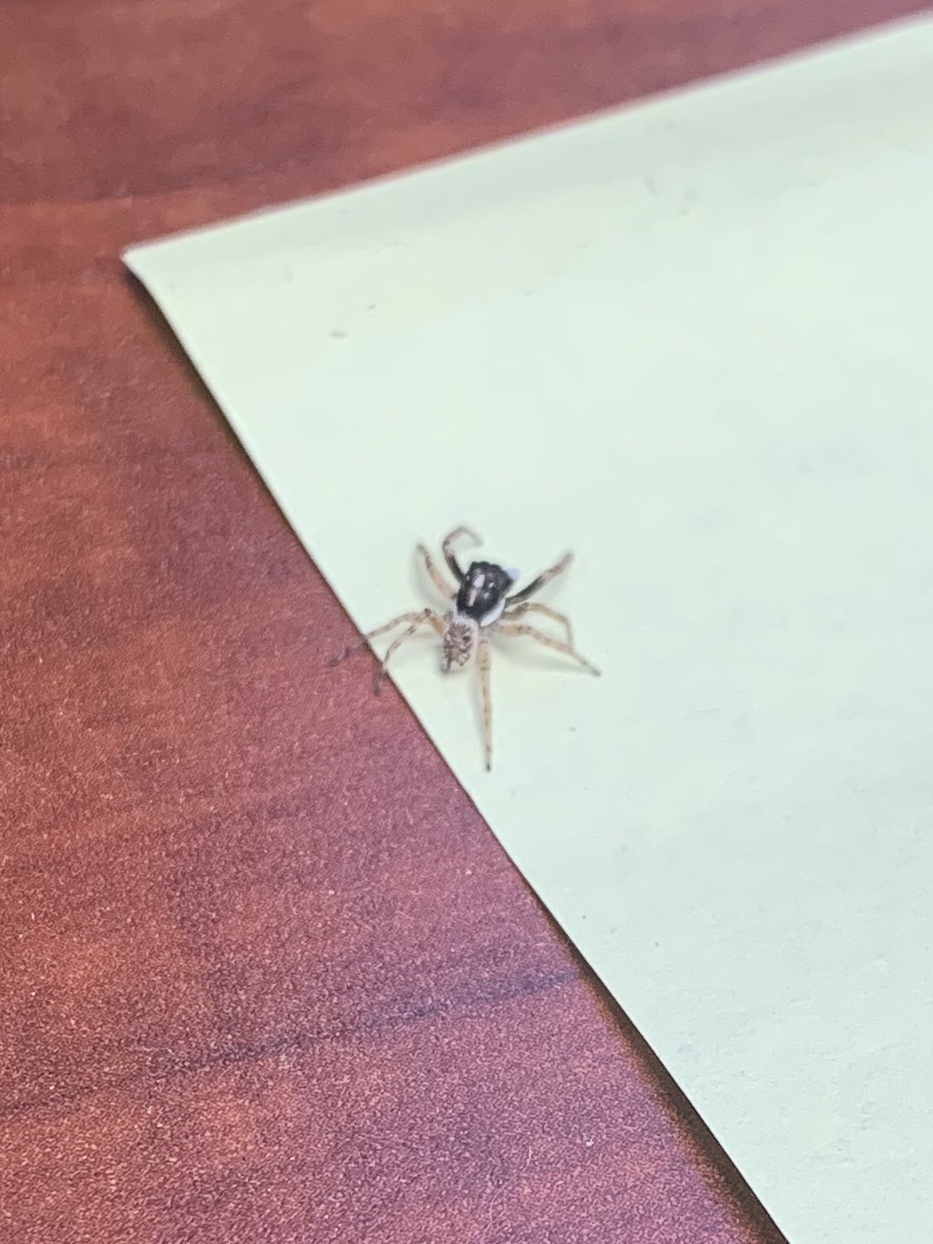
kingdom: Animalia
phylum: Arthropoda
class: Arachnida
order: Araneae
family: Salticidae
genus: Menemerus
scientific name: Menemerus semilimbatus
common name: Jumping spider
